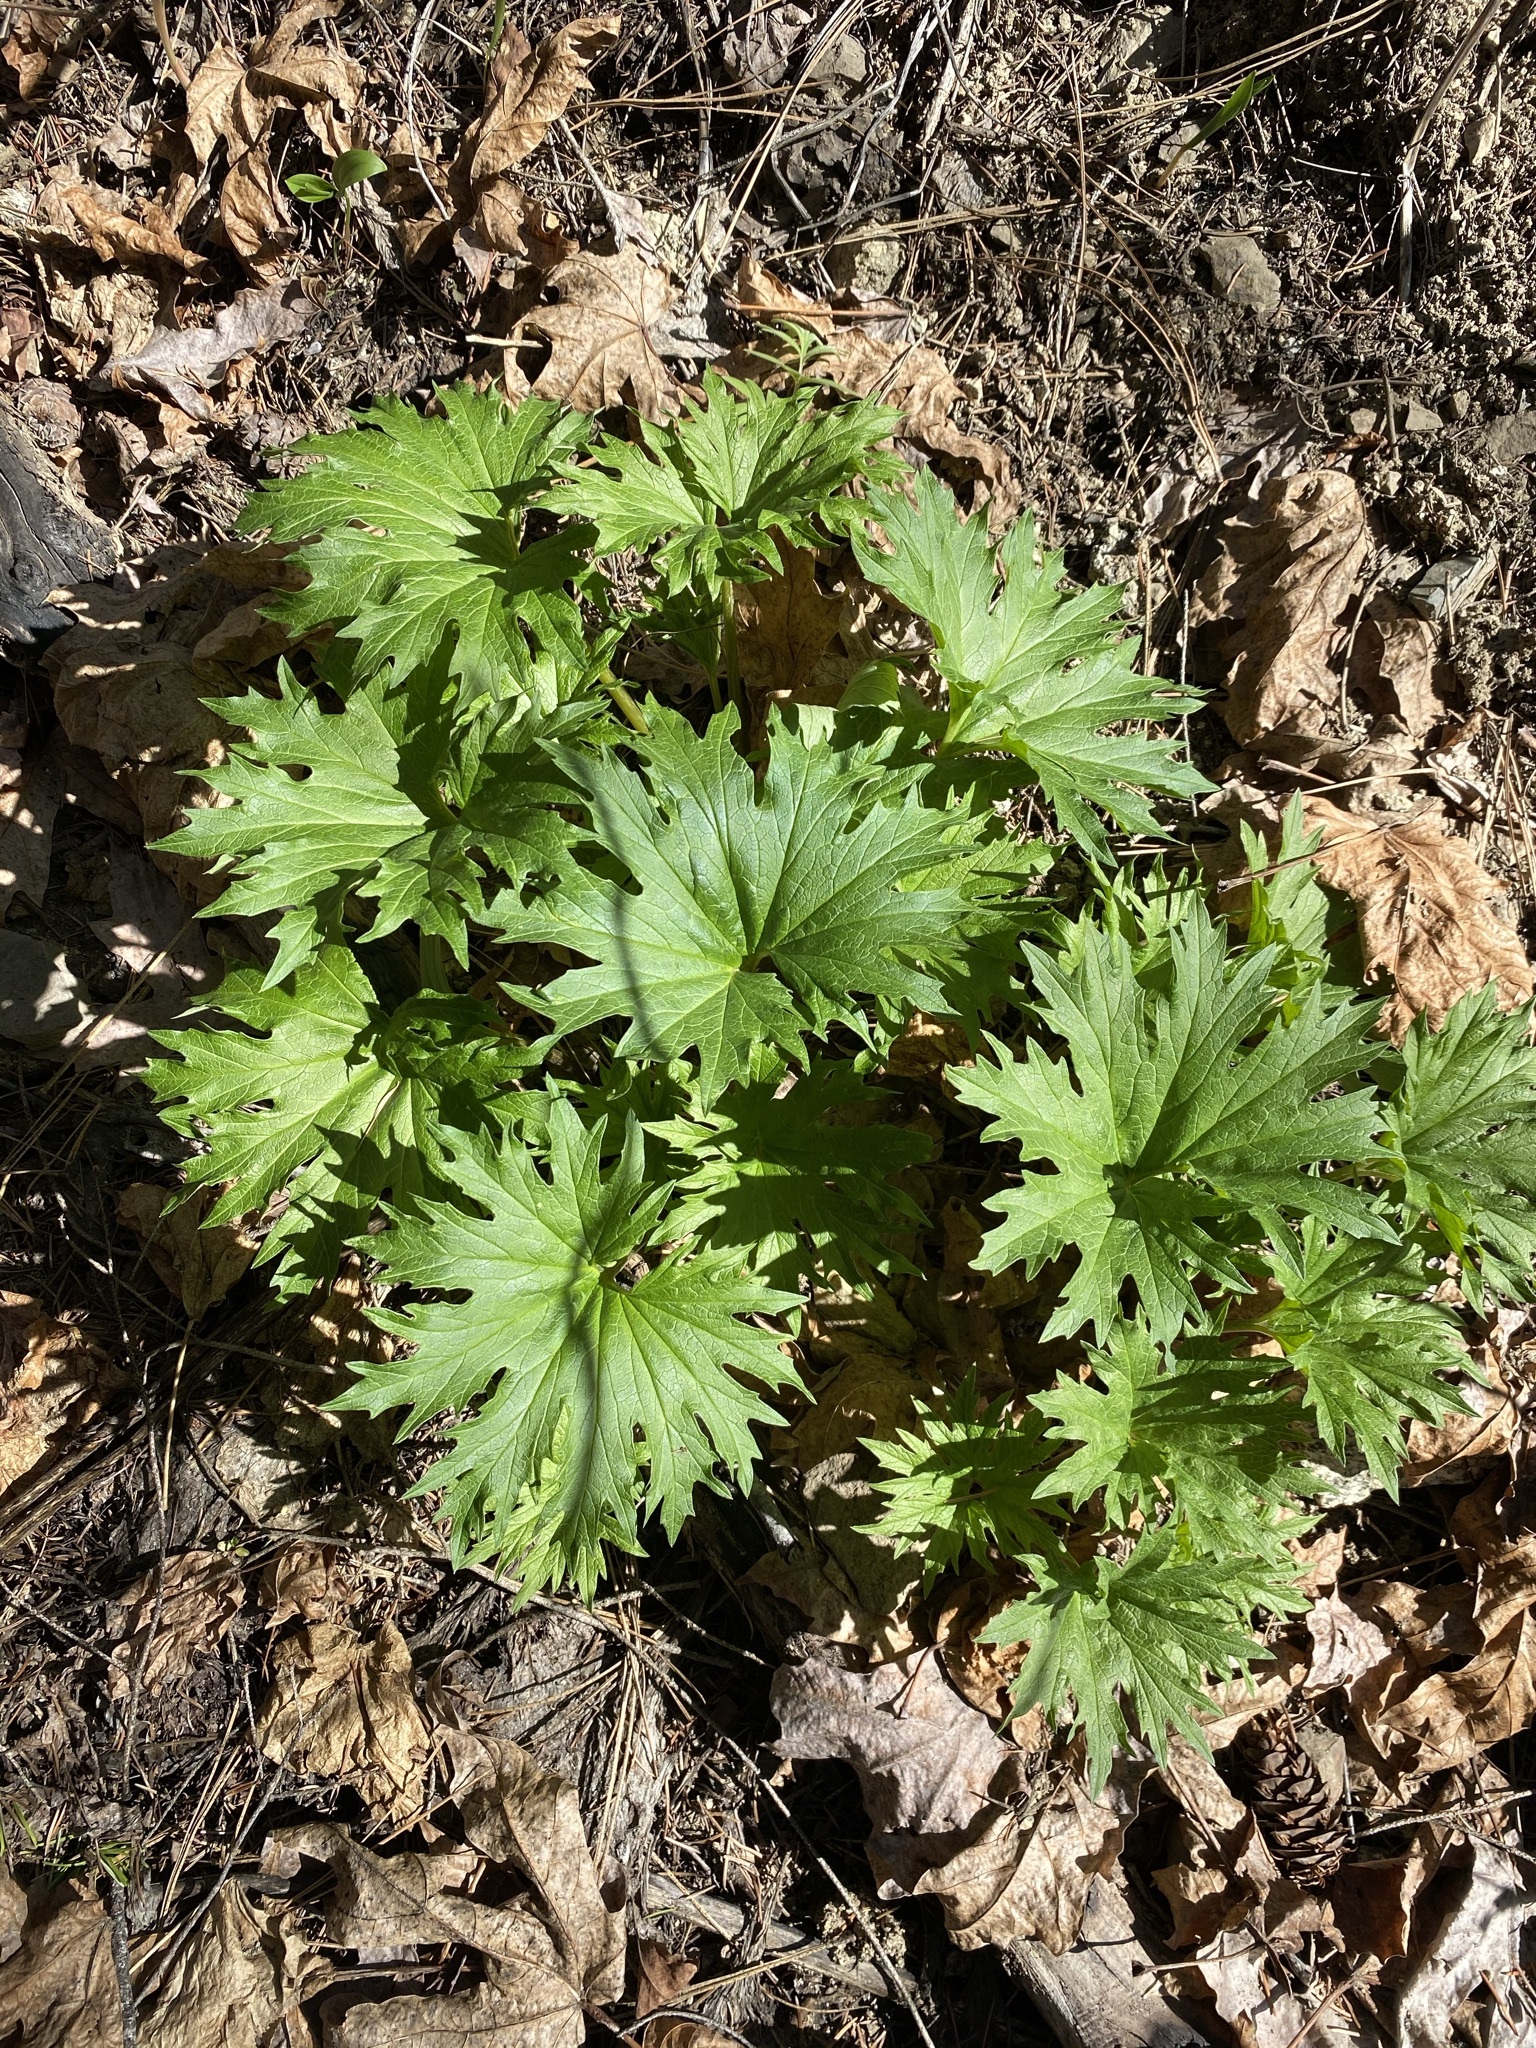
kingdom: Plantae
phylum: Tracheophyta
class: Magnoliopsida
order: Asterales
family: Asteraceae
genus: Cacaliopsis
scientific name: Cacaliopsis nardosmia
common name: Silvercrown
